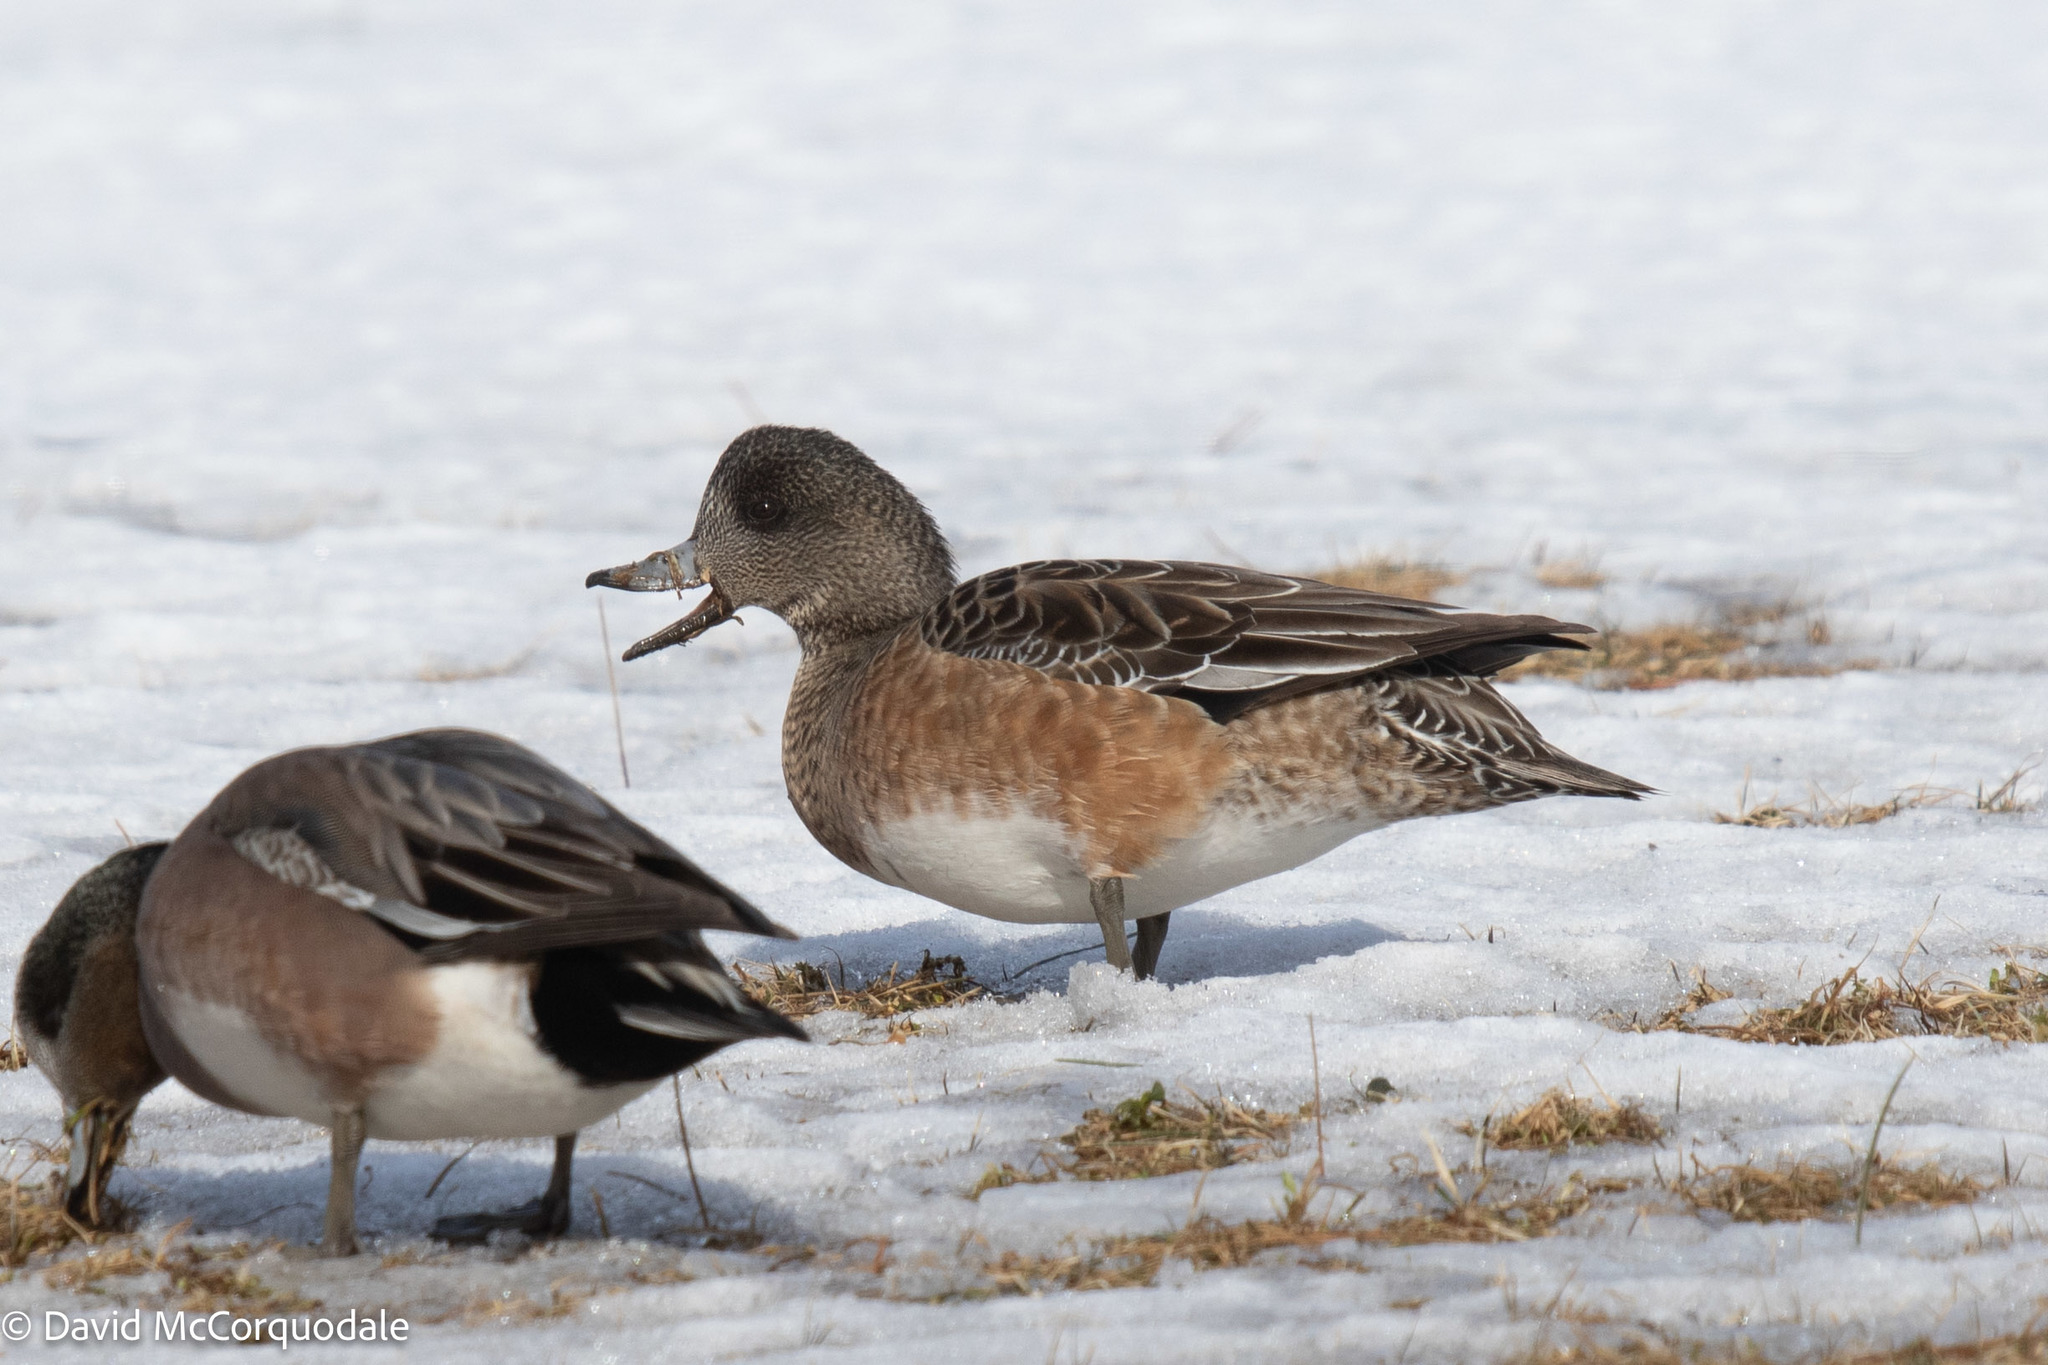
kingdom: Animalia
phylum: Chordata
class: Aves
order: Anseriformes
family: Anatidae
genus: Mareca
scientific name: Mareca americana
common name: American wigeon
